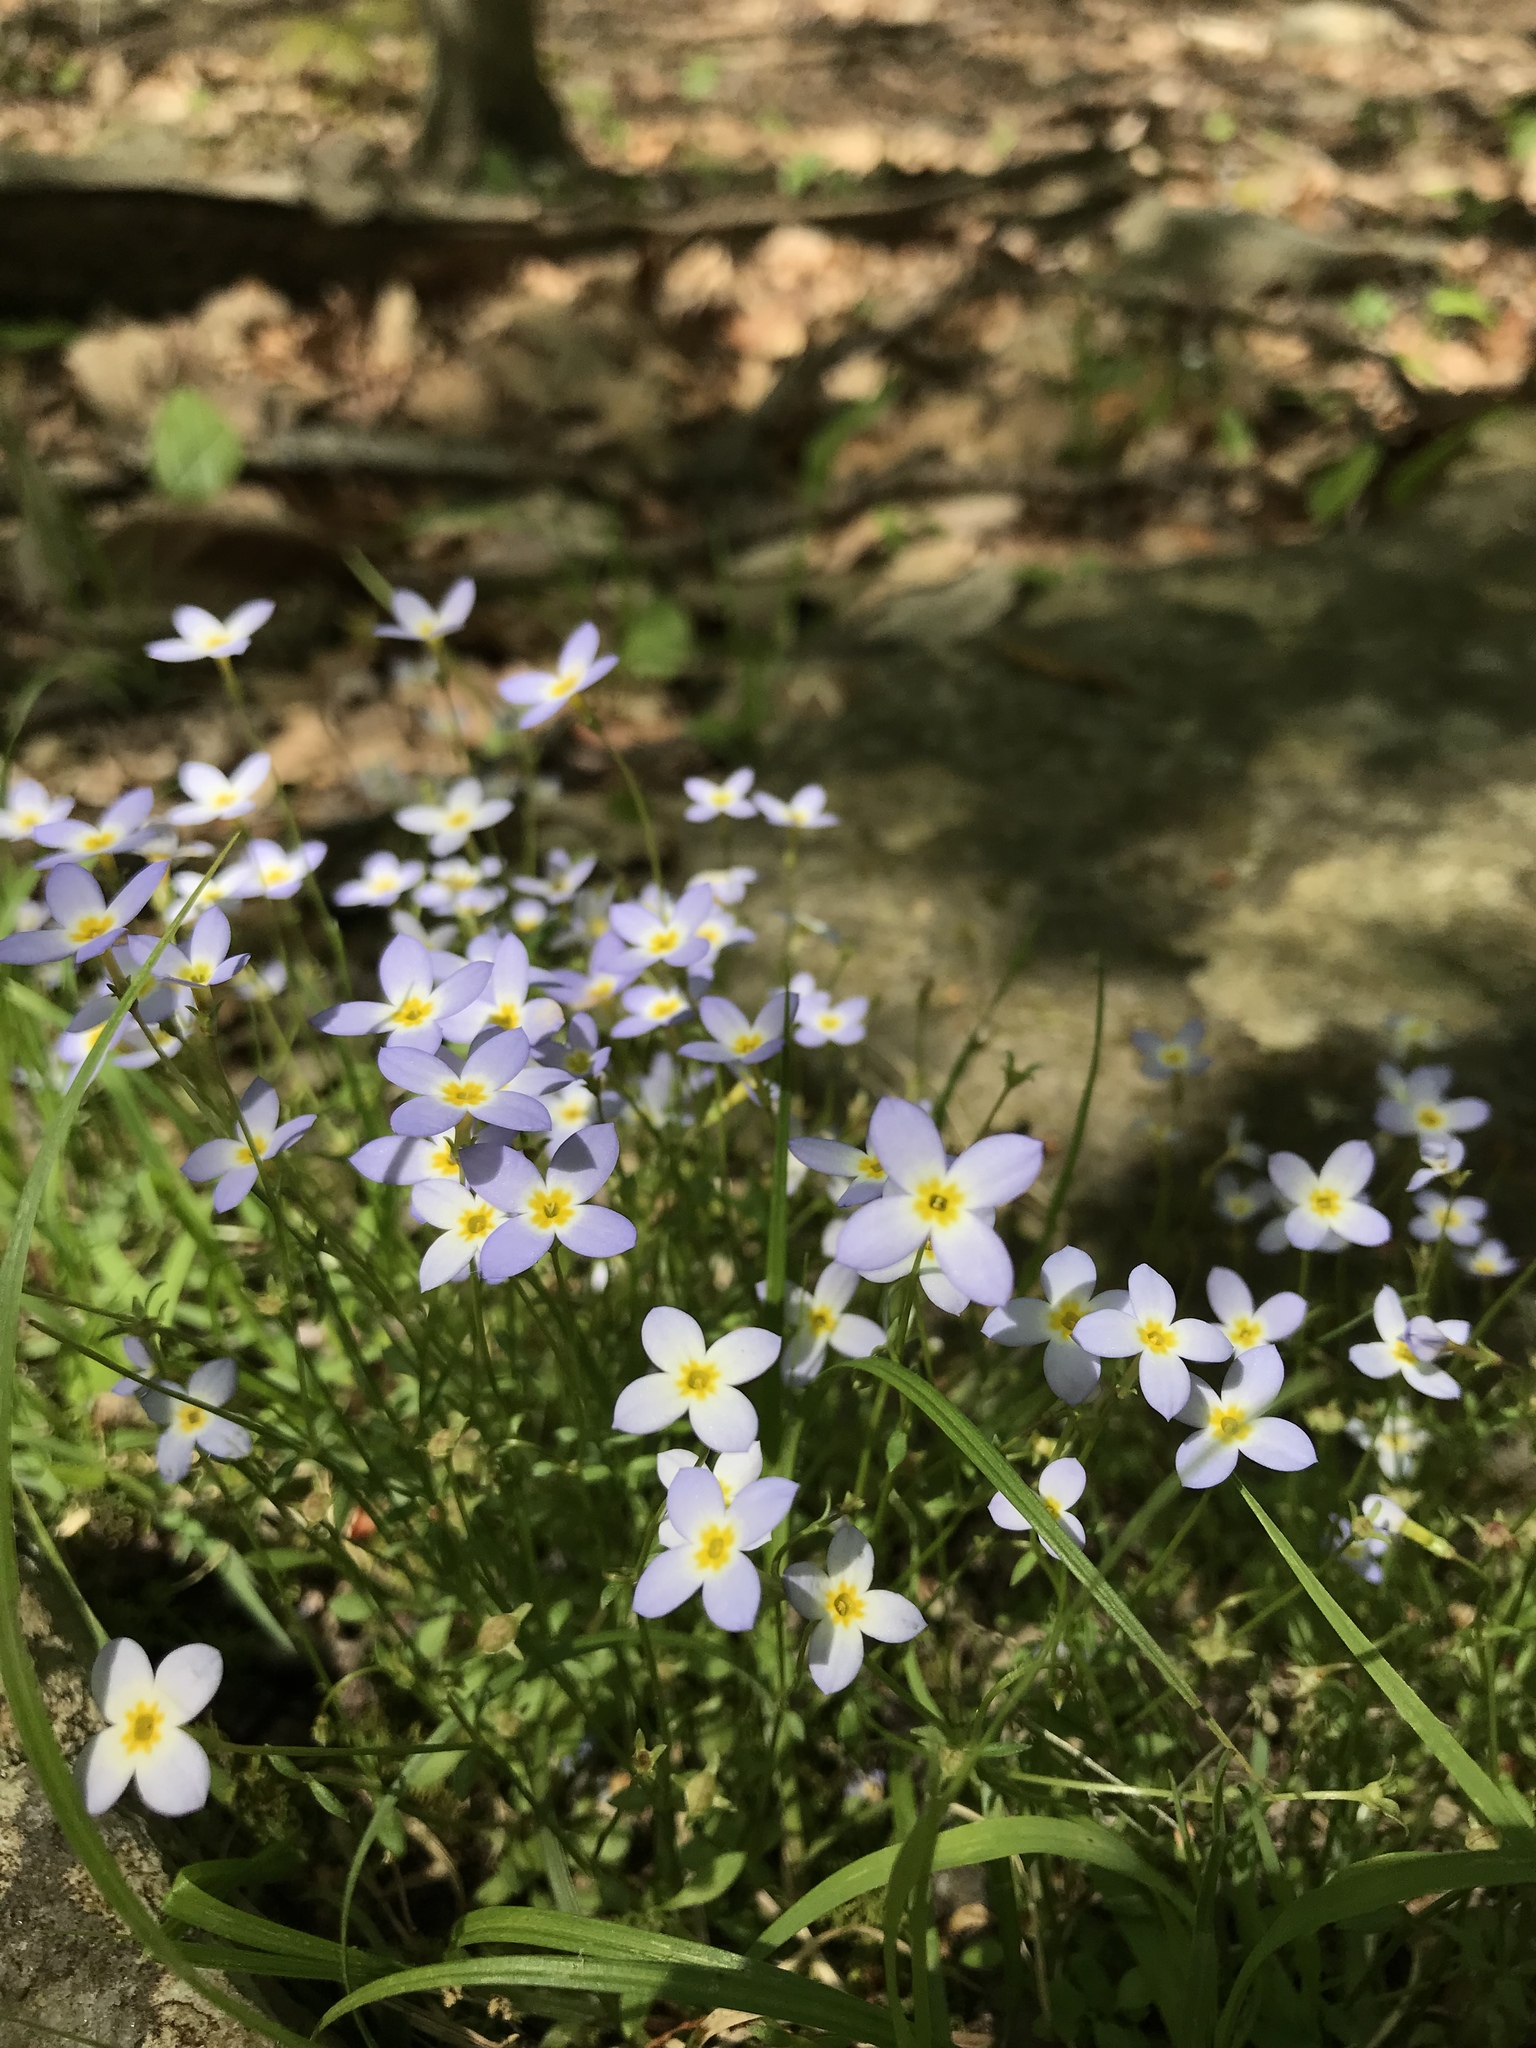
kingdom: Plantae
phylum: Tracheophyta
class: Magnoliopsida
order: Gentianales
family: Rubiaceae
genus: Houstonia
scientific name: Houstonia caerulea
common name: Bluets
